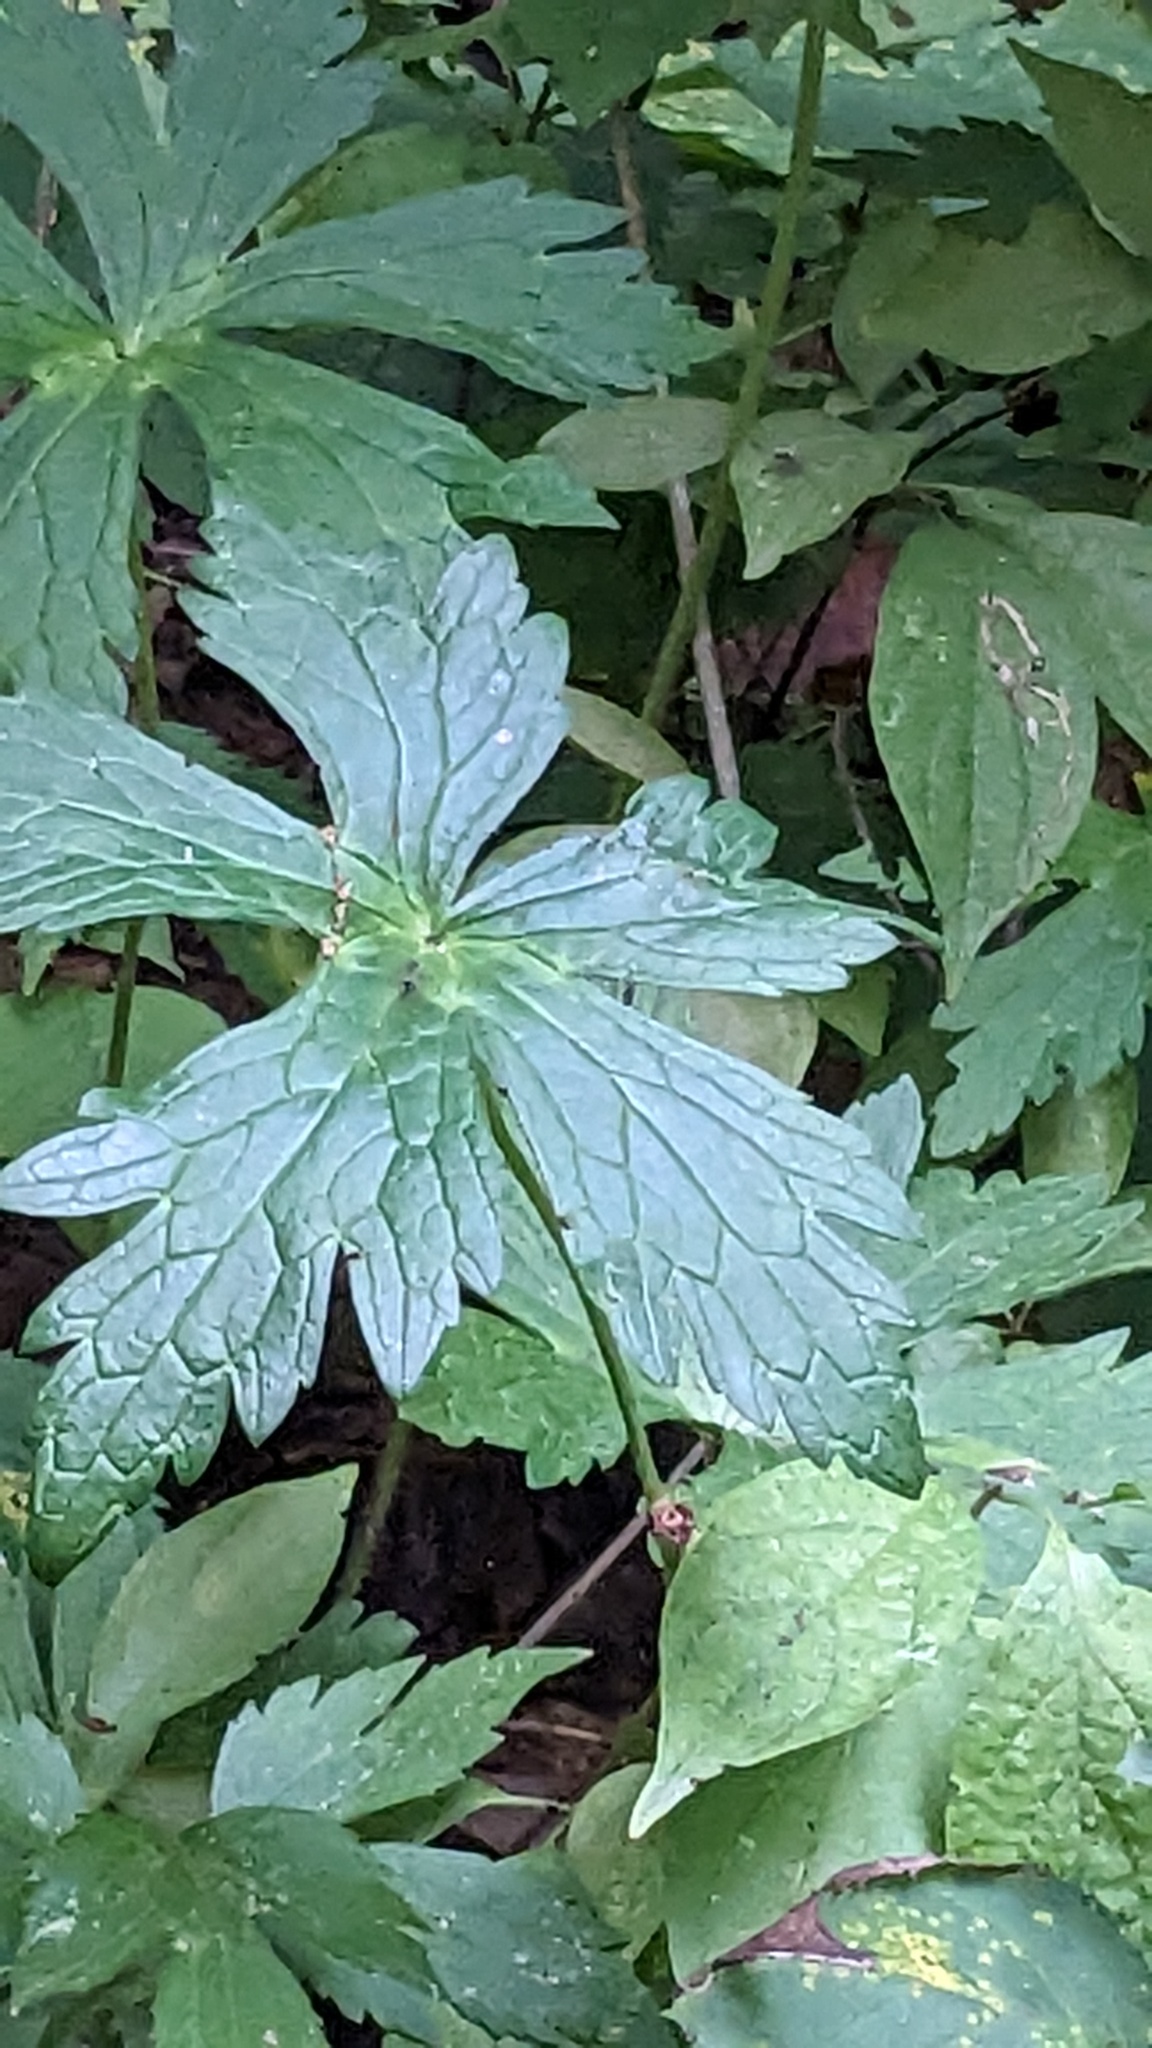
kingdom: Plantae
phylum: Tracheophyta
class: Magnoliopsida
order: Geraniales
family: Geraniaceae
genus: Geranium
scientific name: Geranium maculatum
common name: Spotted geranium
